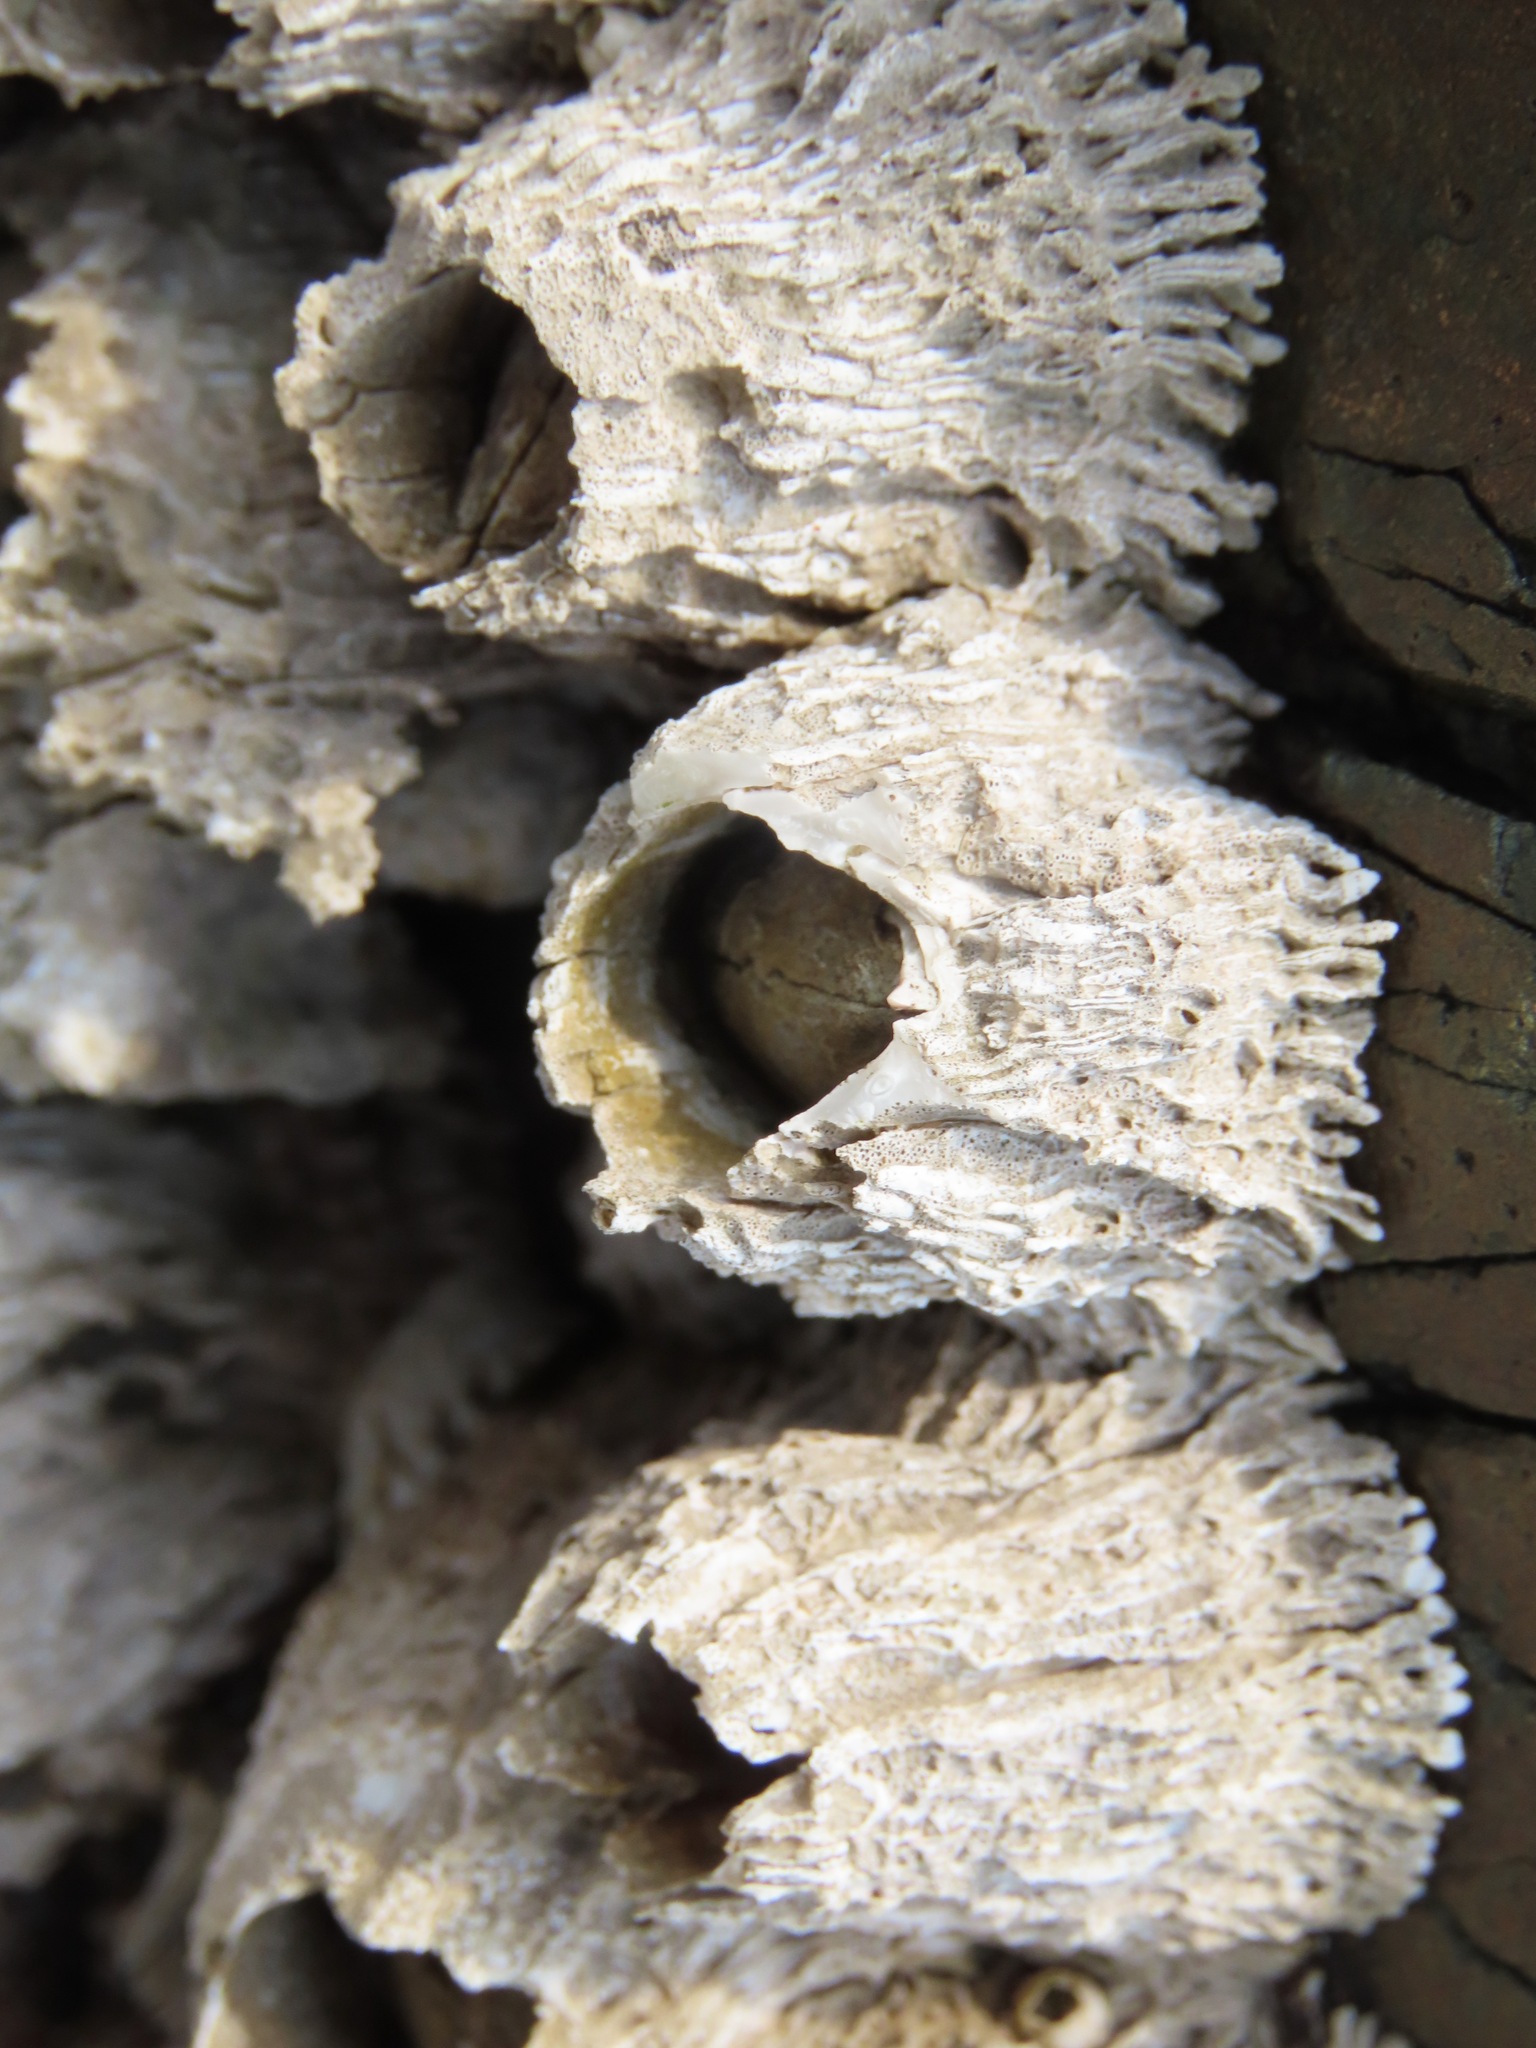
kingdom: Animalia
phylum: Arthropoda
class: Maxillopoda
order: Sessilia
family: Archaeobalanidae
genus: Semibalanus
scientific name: Semibalanus cariosus
